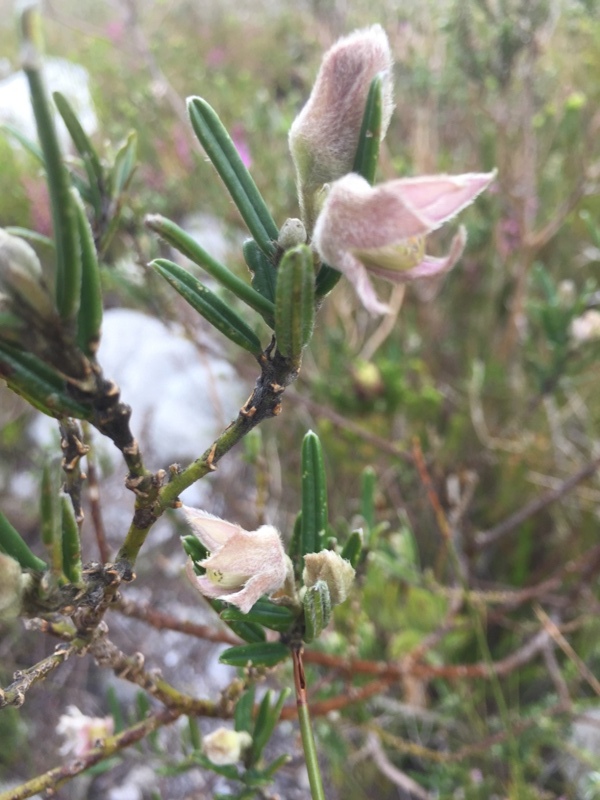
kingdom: Plantae
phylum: Tracheophyta
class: Magnoliopsida
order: Fabales
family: Fabaceae
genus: Podalyria
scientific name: Podalyria oleifolia
